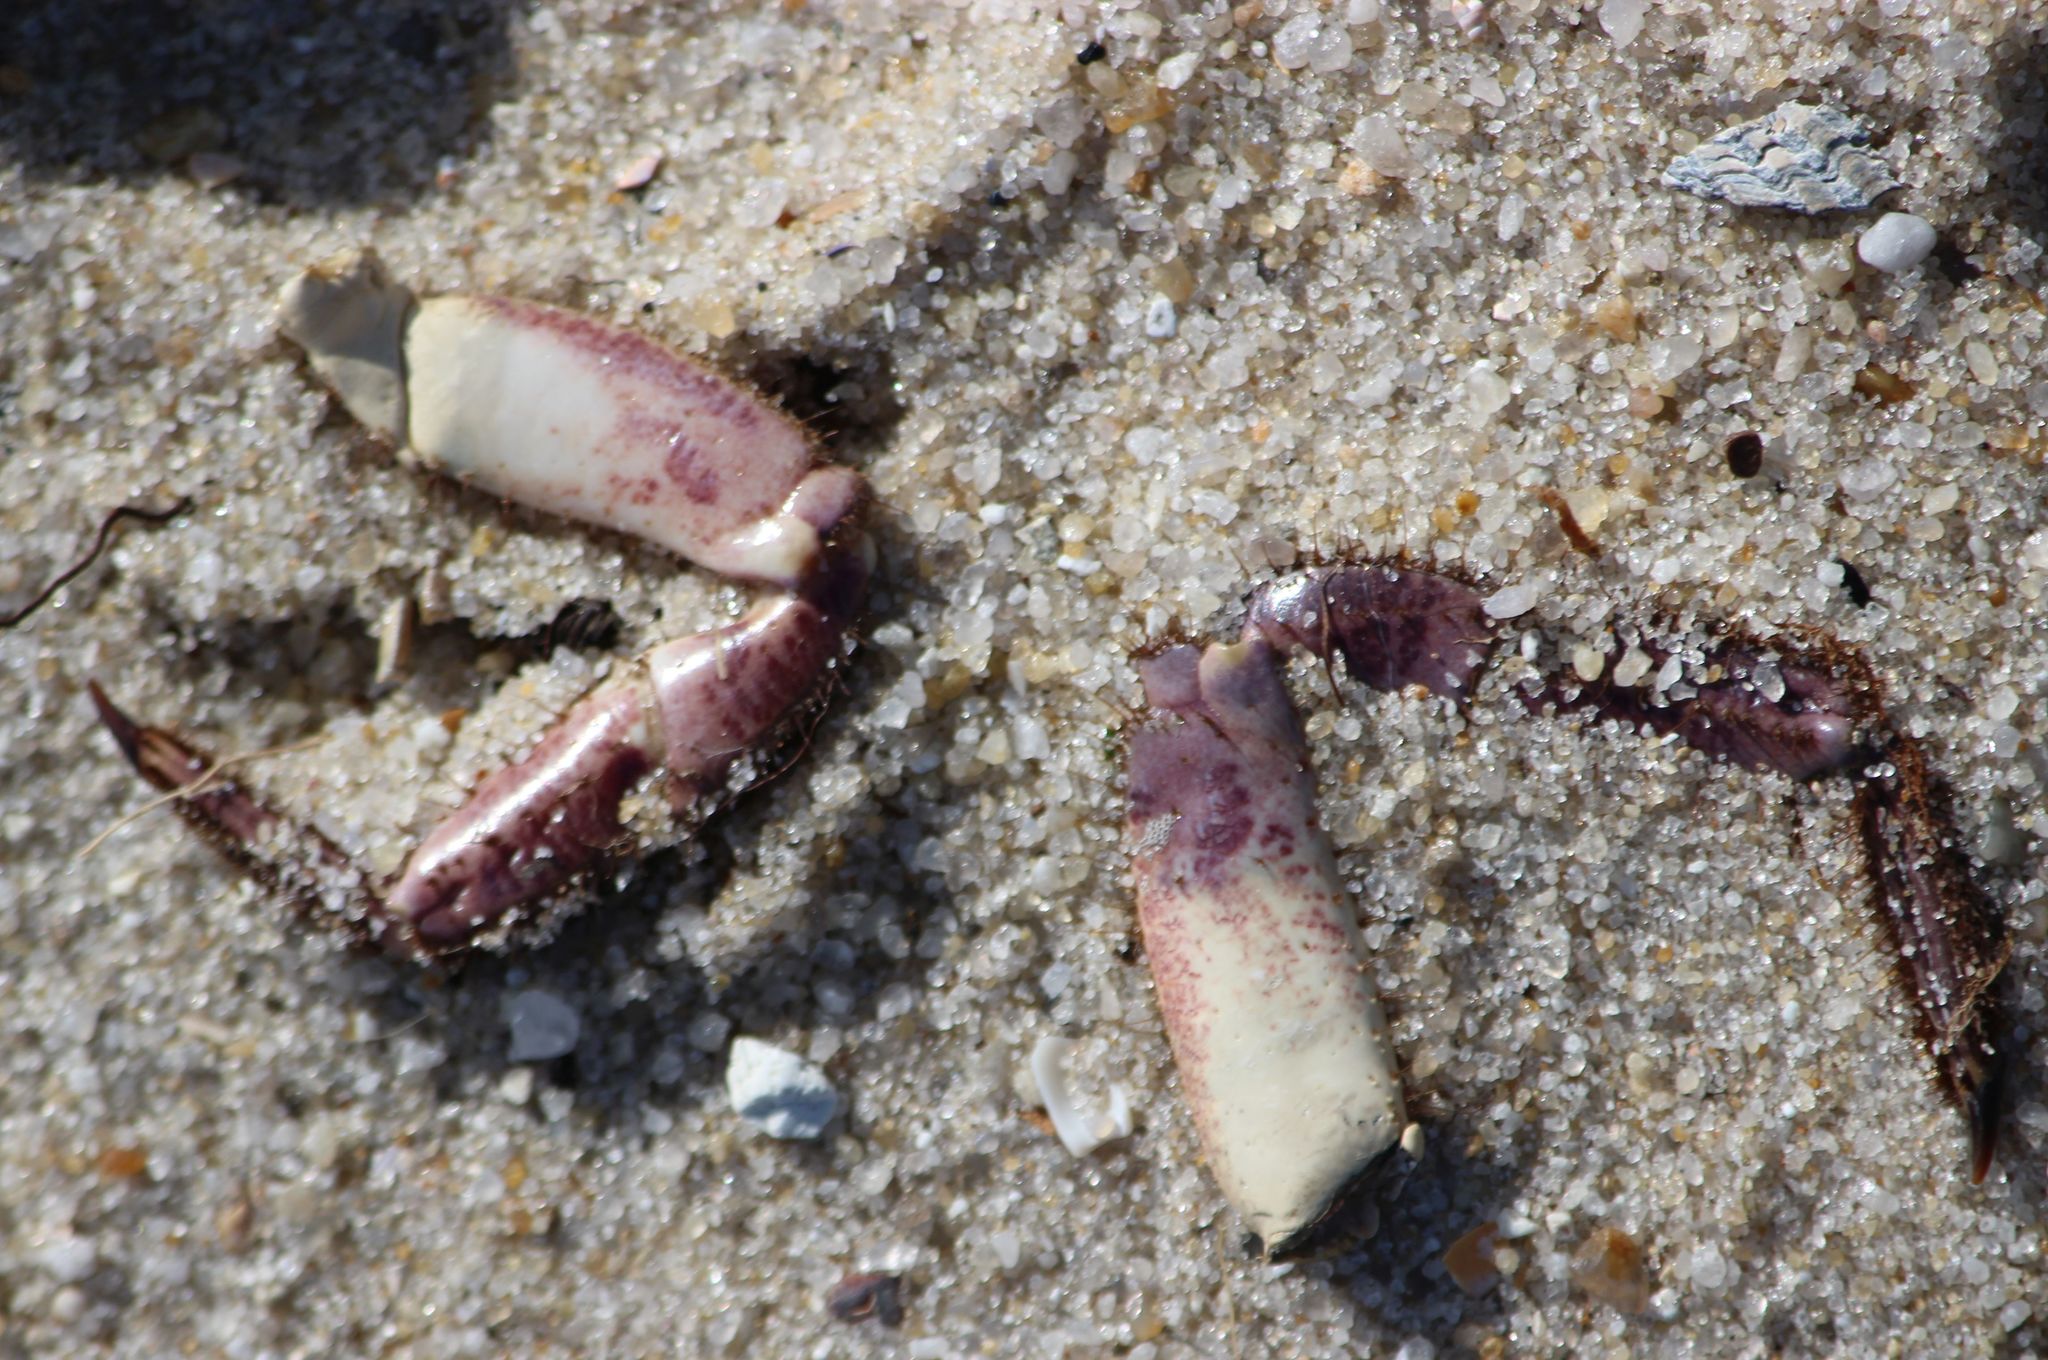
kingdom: Animalia
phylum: Arthropoda
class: Malacostraca
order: Decapoda
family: Cancridae
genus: Cancer
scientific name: Cancer pagurus
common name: Edible crab
